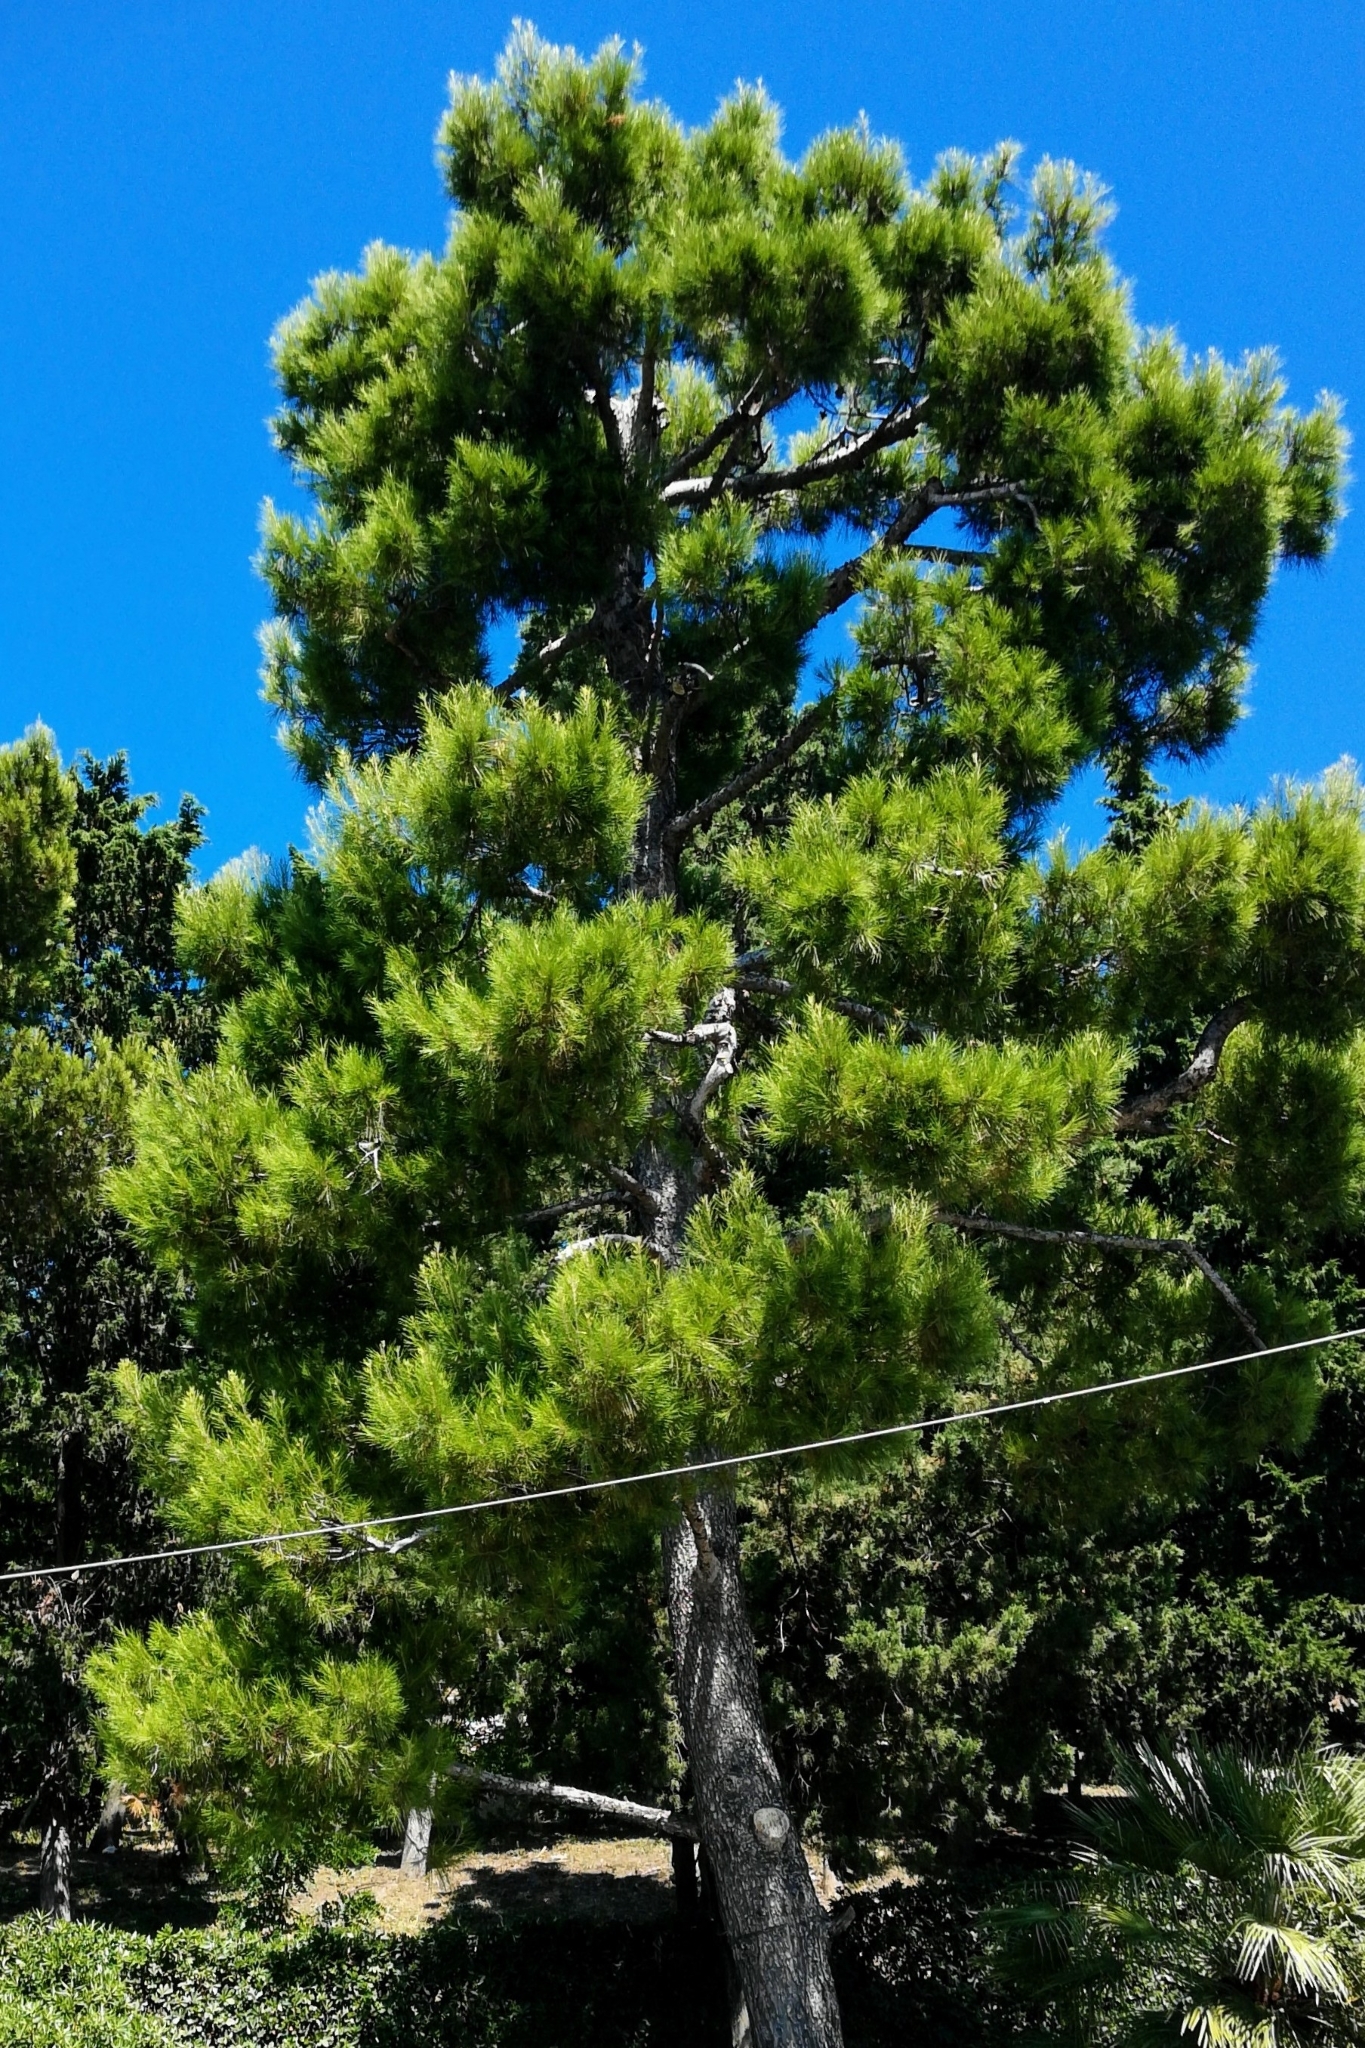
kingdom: Plantae
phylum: Tracheophyta
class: Pinopsida
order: Pinales
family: Pinaceae
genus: Pinus
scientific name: Pinus halepensis
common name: Aleppo pine
